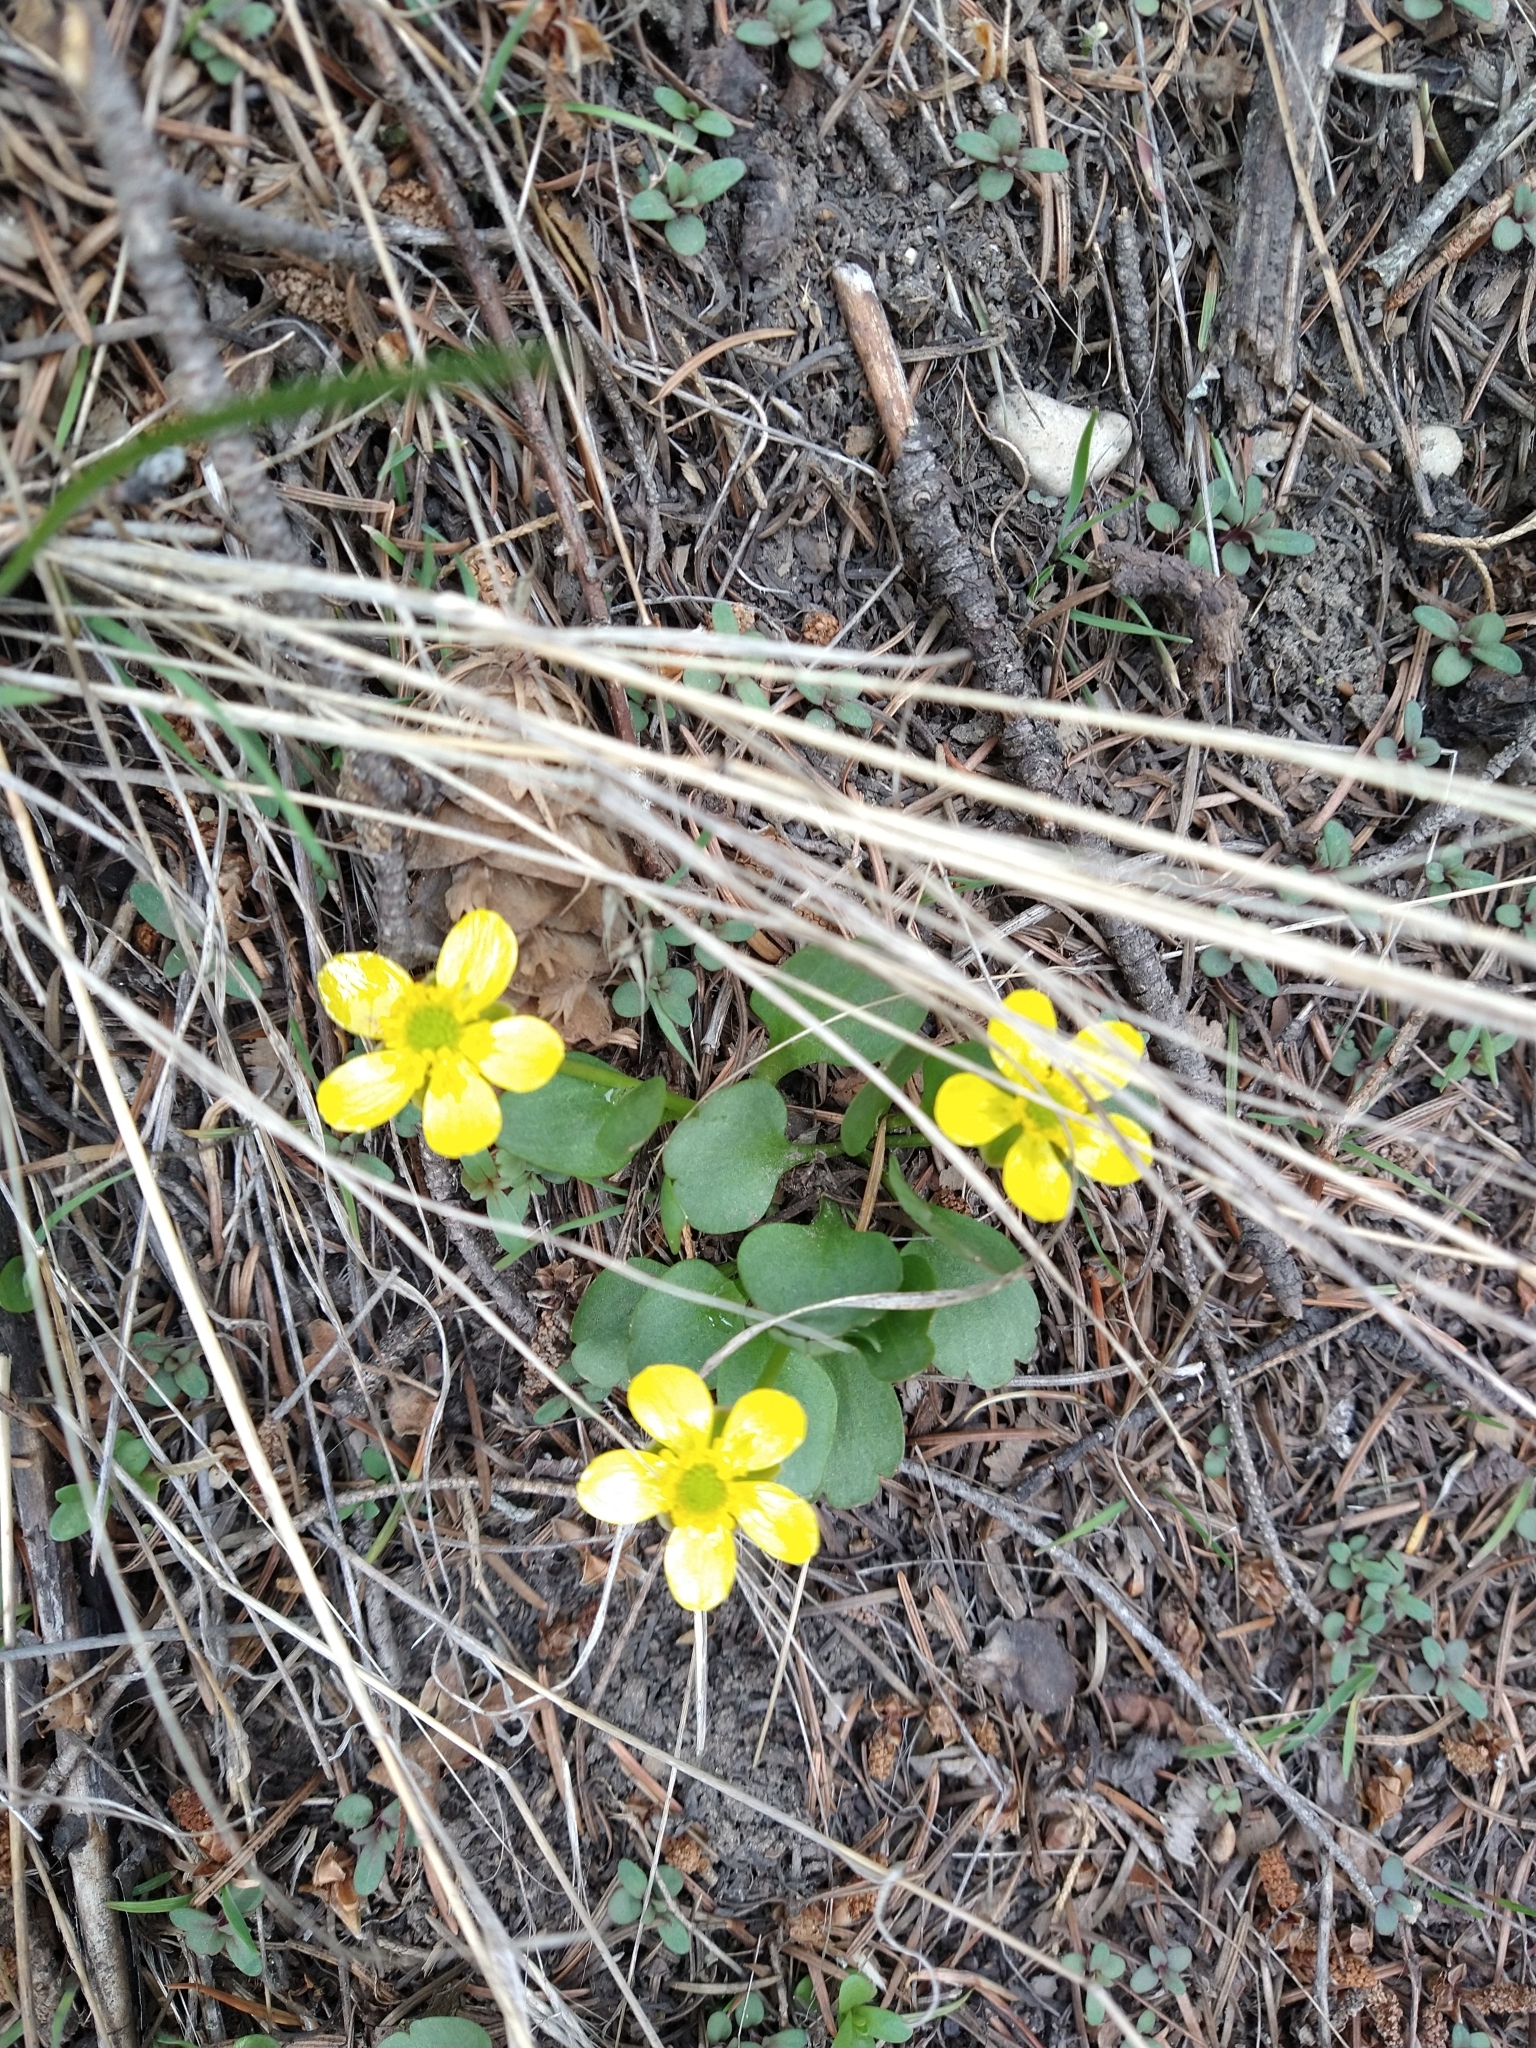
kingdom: Plantae
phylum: Tracheophyta
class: Magnoliopsida
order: Ranunculales
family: Ranunculaceae
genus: Ranunculus
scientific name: Ranunculus glaberrimus
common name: Sagebrush buttercup
